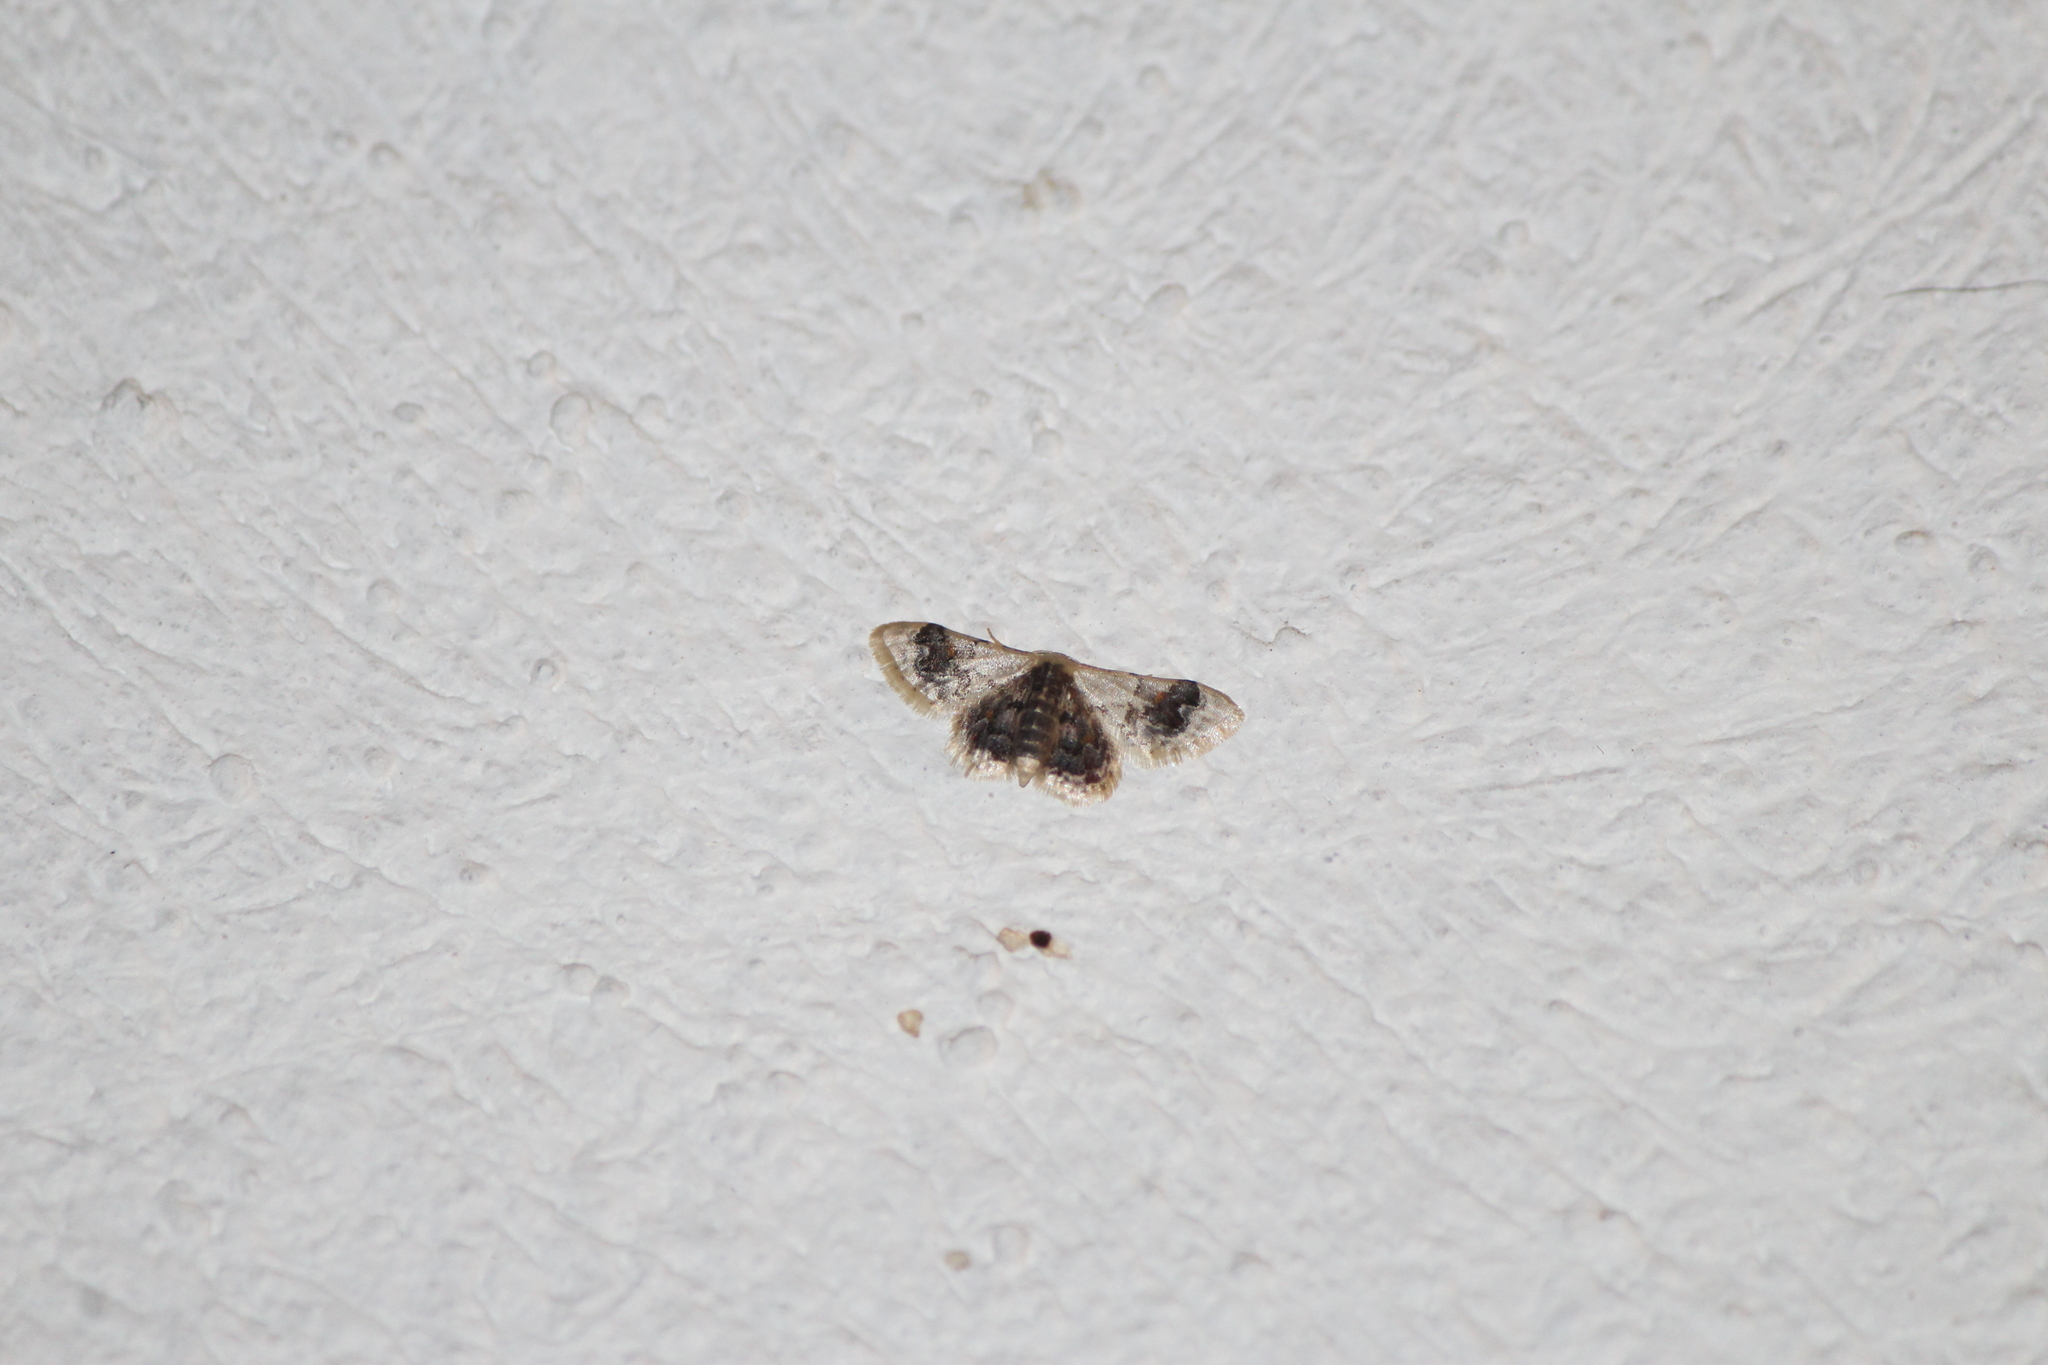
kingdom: Animalia
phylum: Arthropoda
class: Insecta
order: Lepidoptera
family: Geometridae
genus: Idaea
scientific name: Idaea asceta
